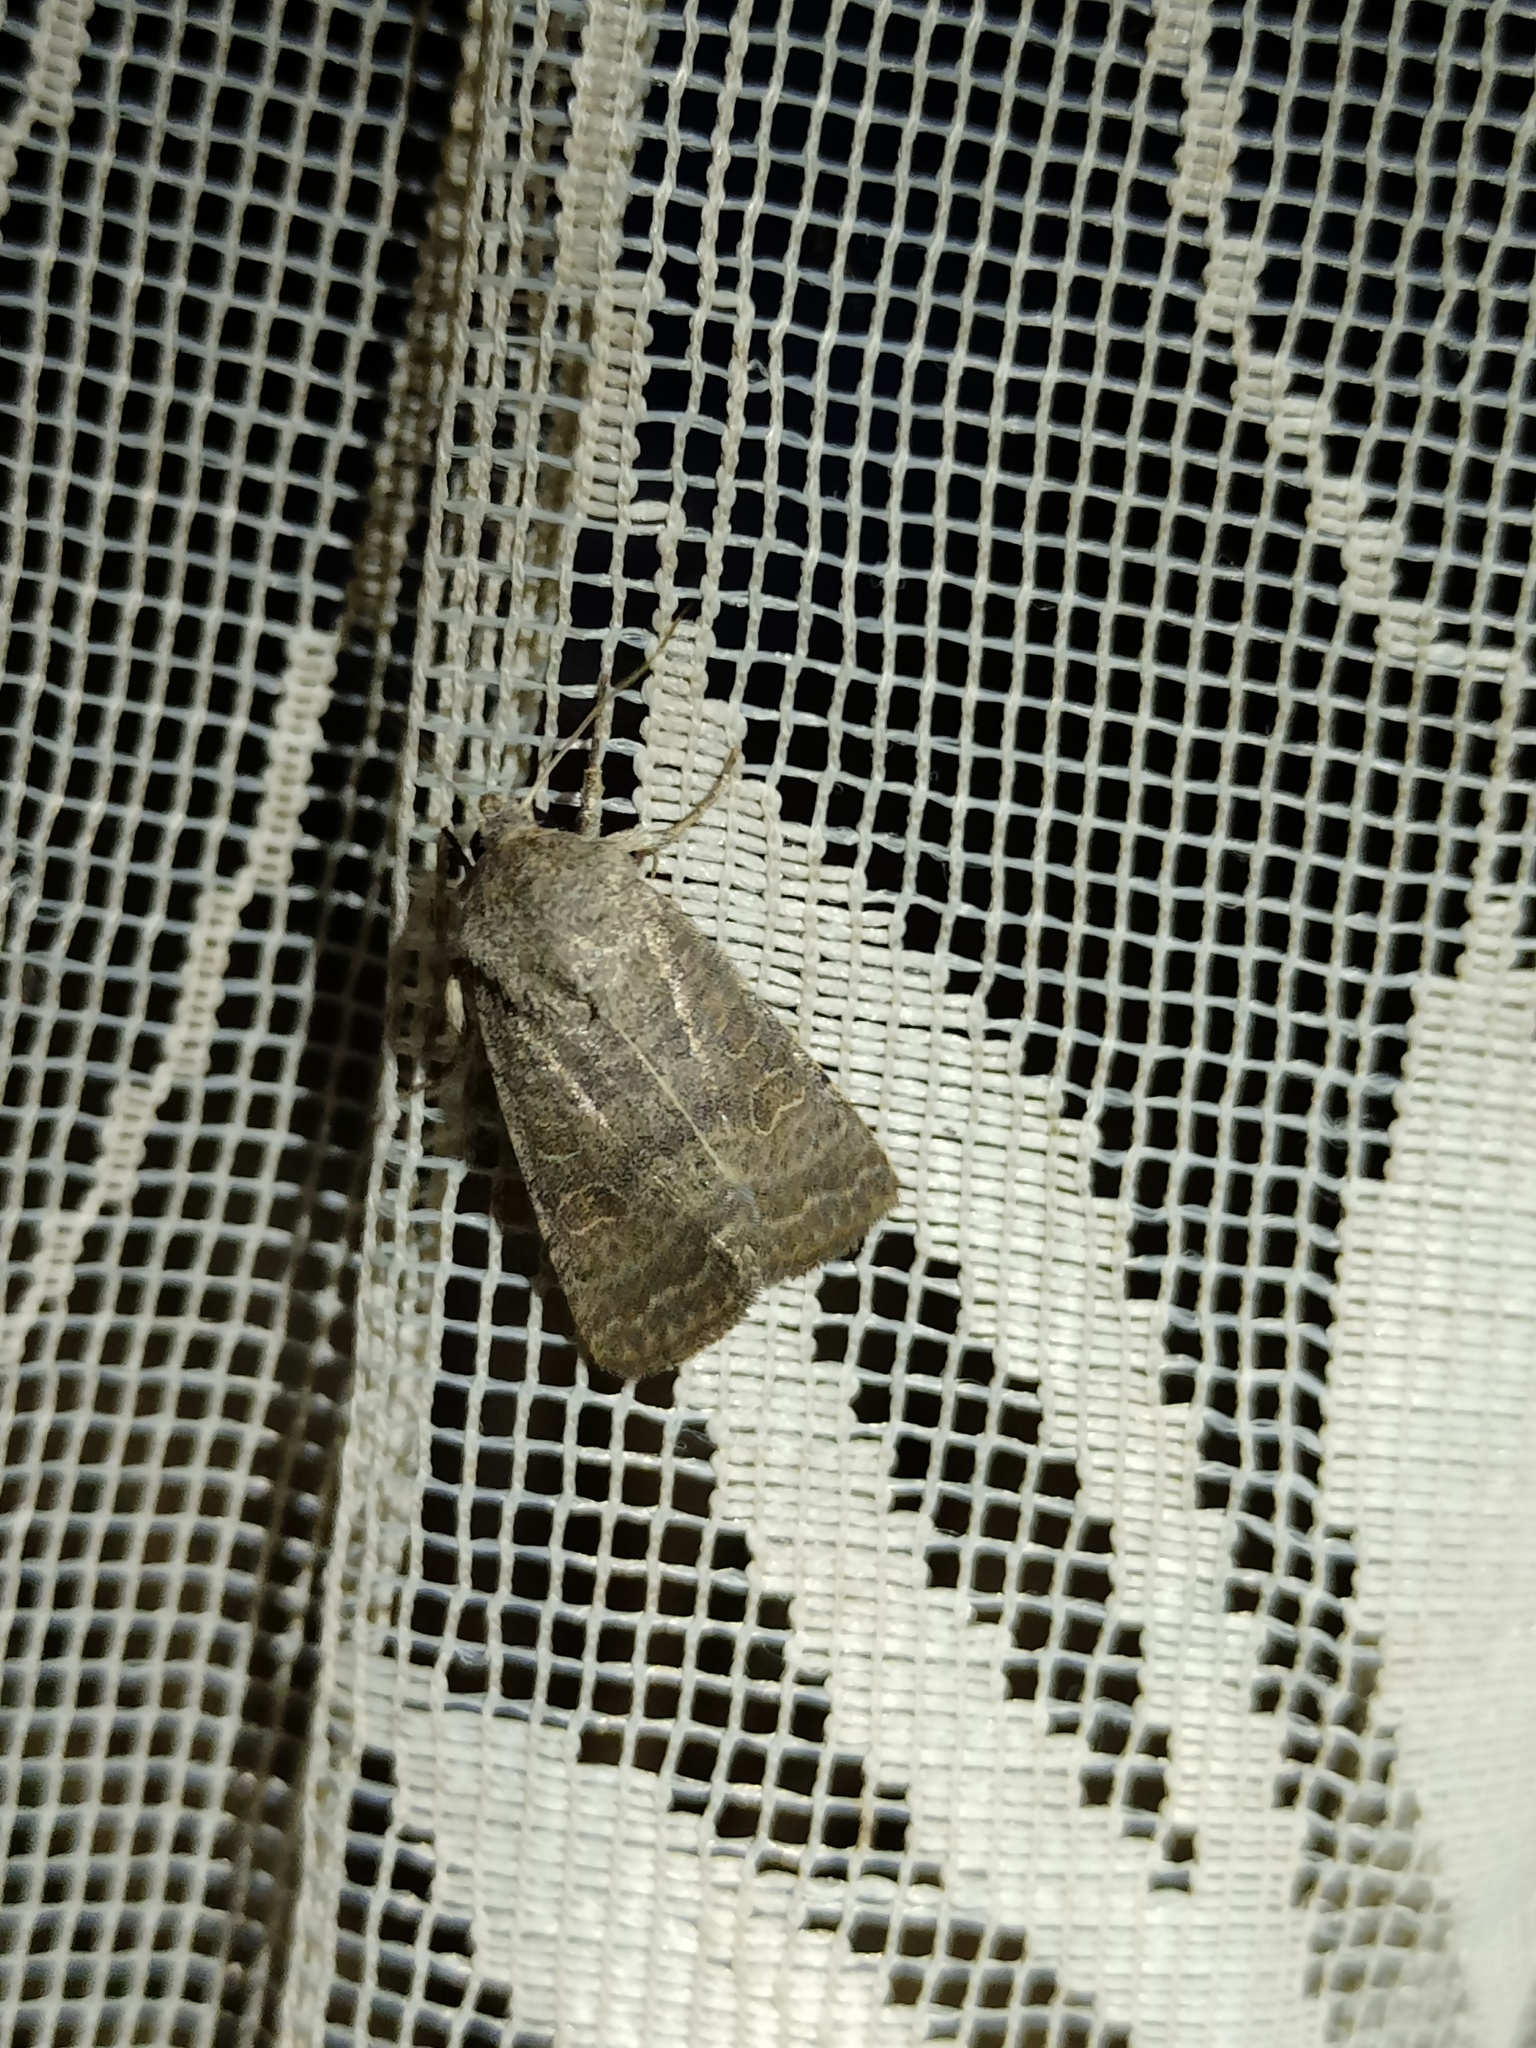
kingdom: Animalia
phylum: Arthropoda
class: Insecta
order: Lepidoptera
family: Noctuidae
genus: Hoplodrina
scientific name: Hoplodrina ambigua
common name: Vine's rustic
